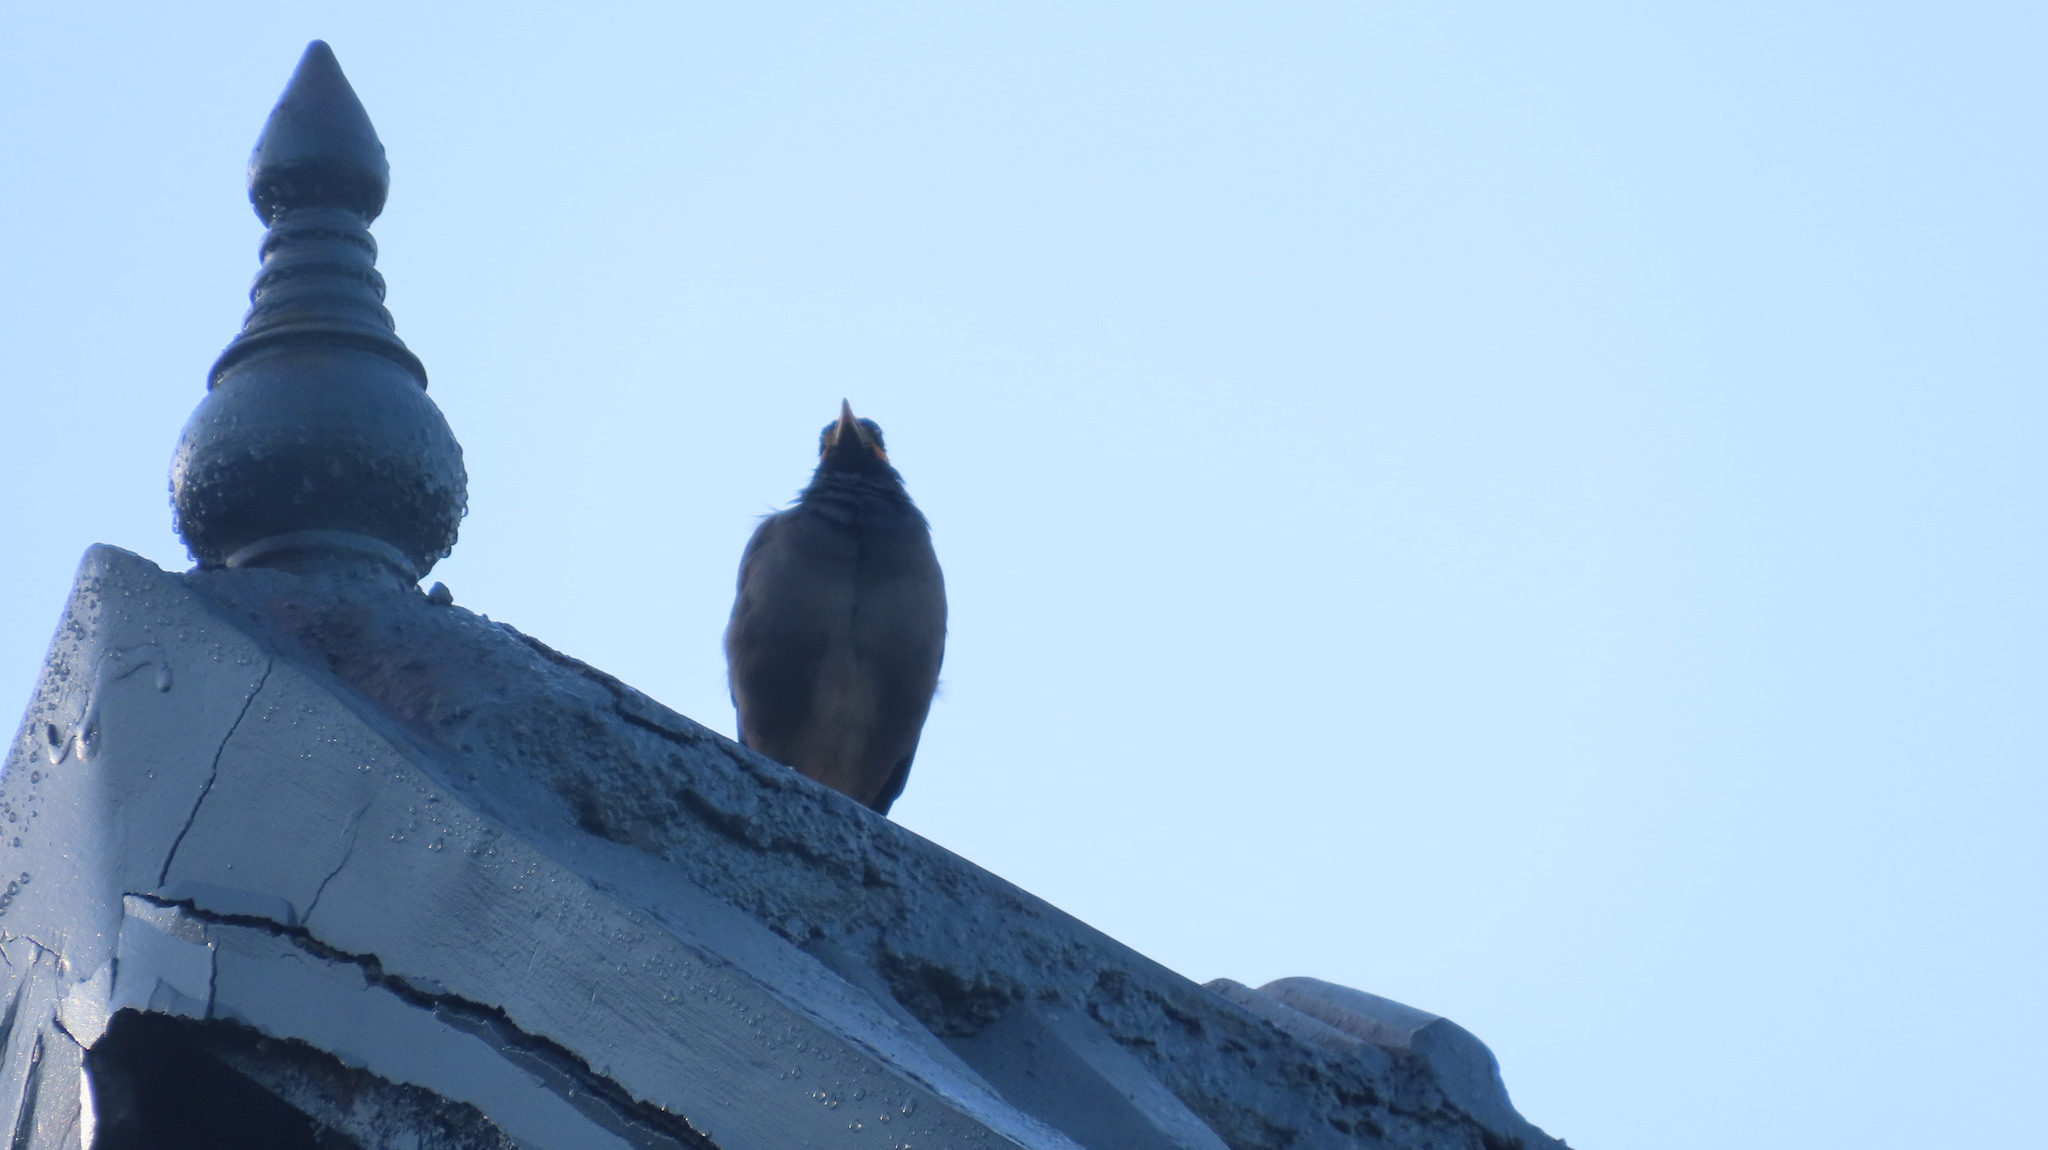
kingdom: Animalia
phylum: Chordata
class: Aves
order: Passeriformes
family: Sturnidae
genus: Acridotheres
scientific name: Acridotheres tristis
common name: Common myna
